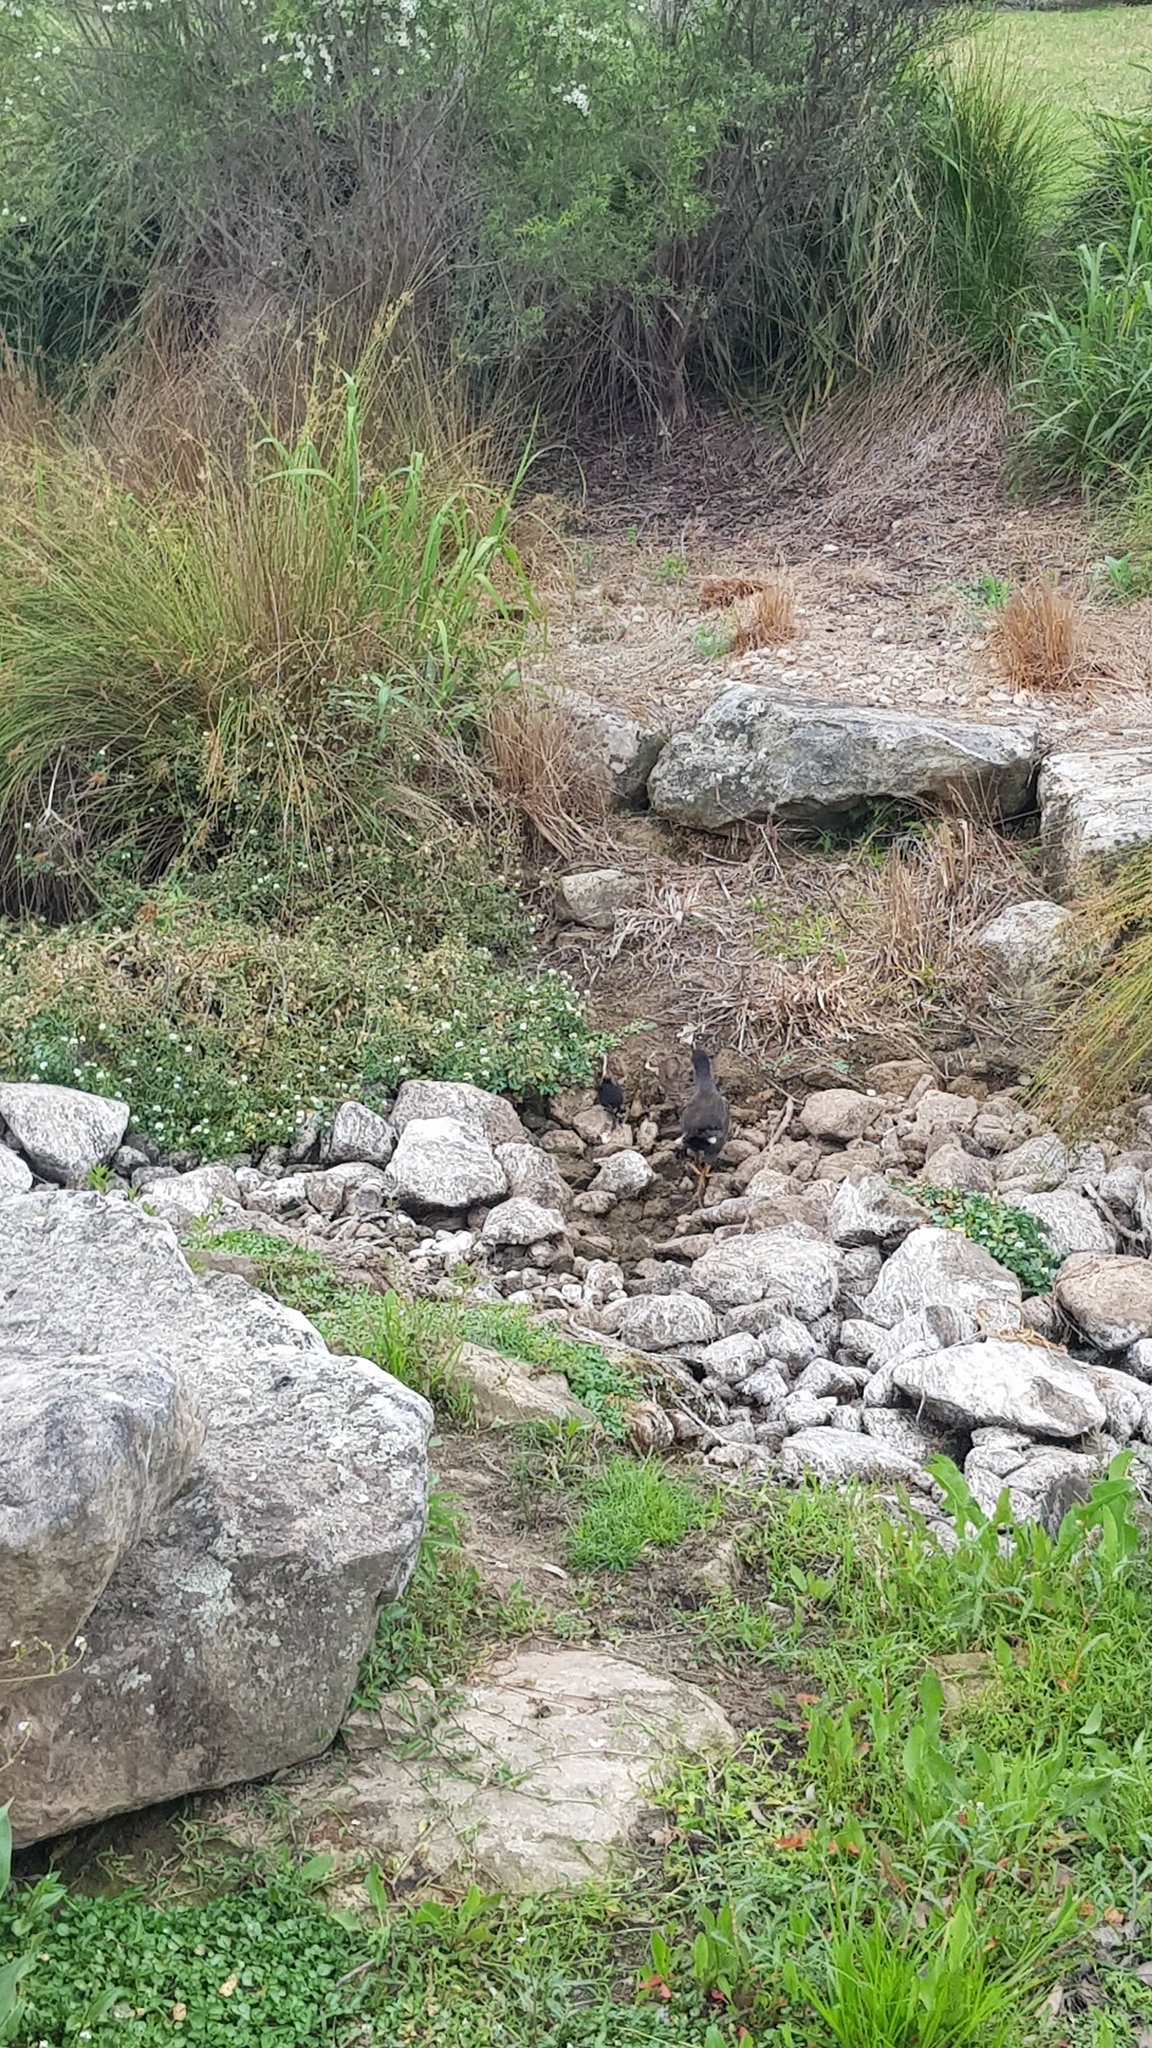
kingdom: Animalia
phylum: Chordata
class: Aves
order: Gruiformes
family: Rallidae
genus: Gallinula
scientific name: Gallinula tenebrosa
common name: Dusky moorhen
